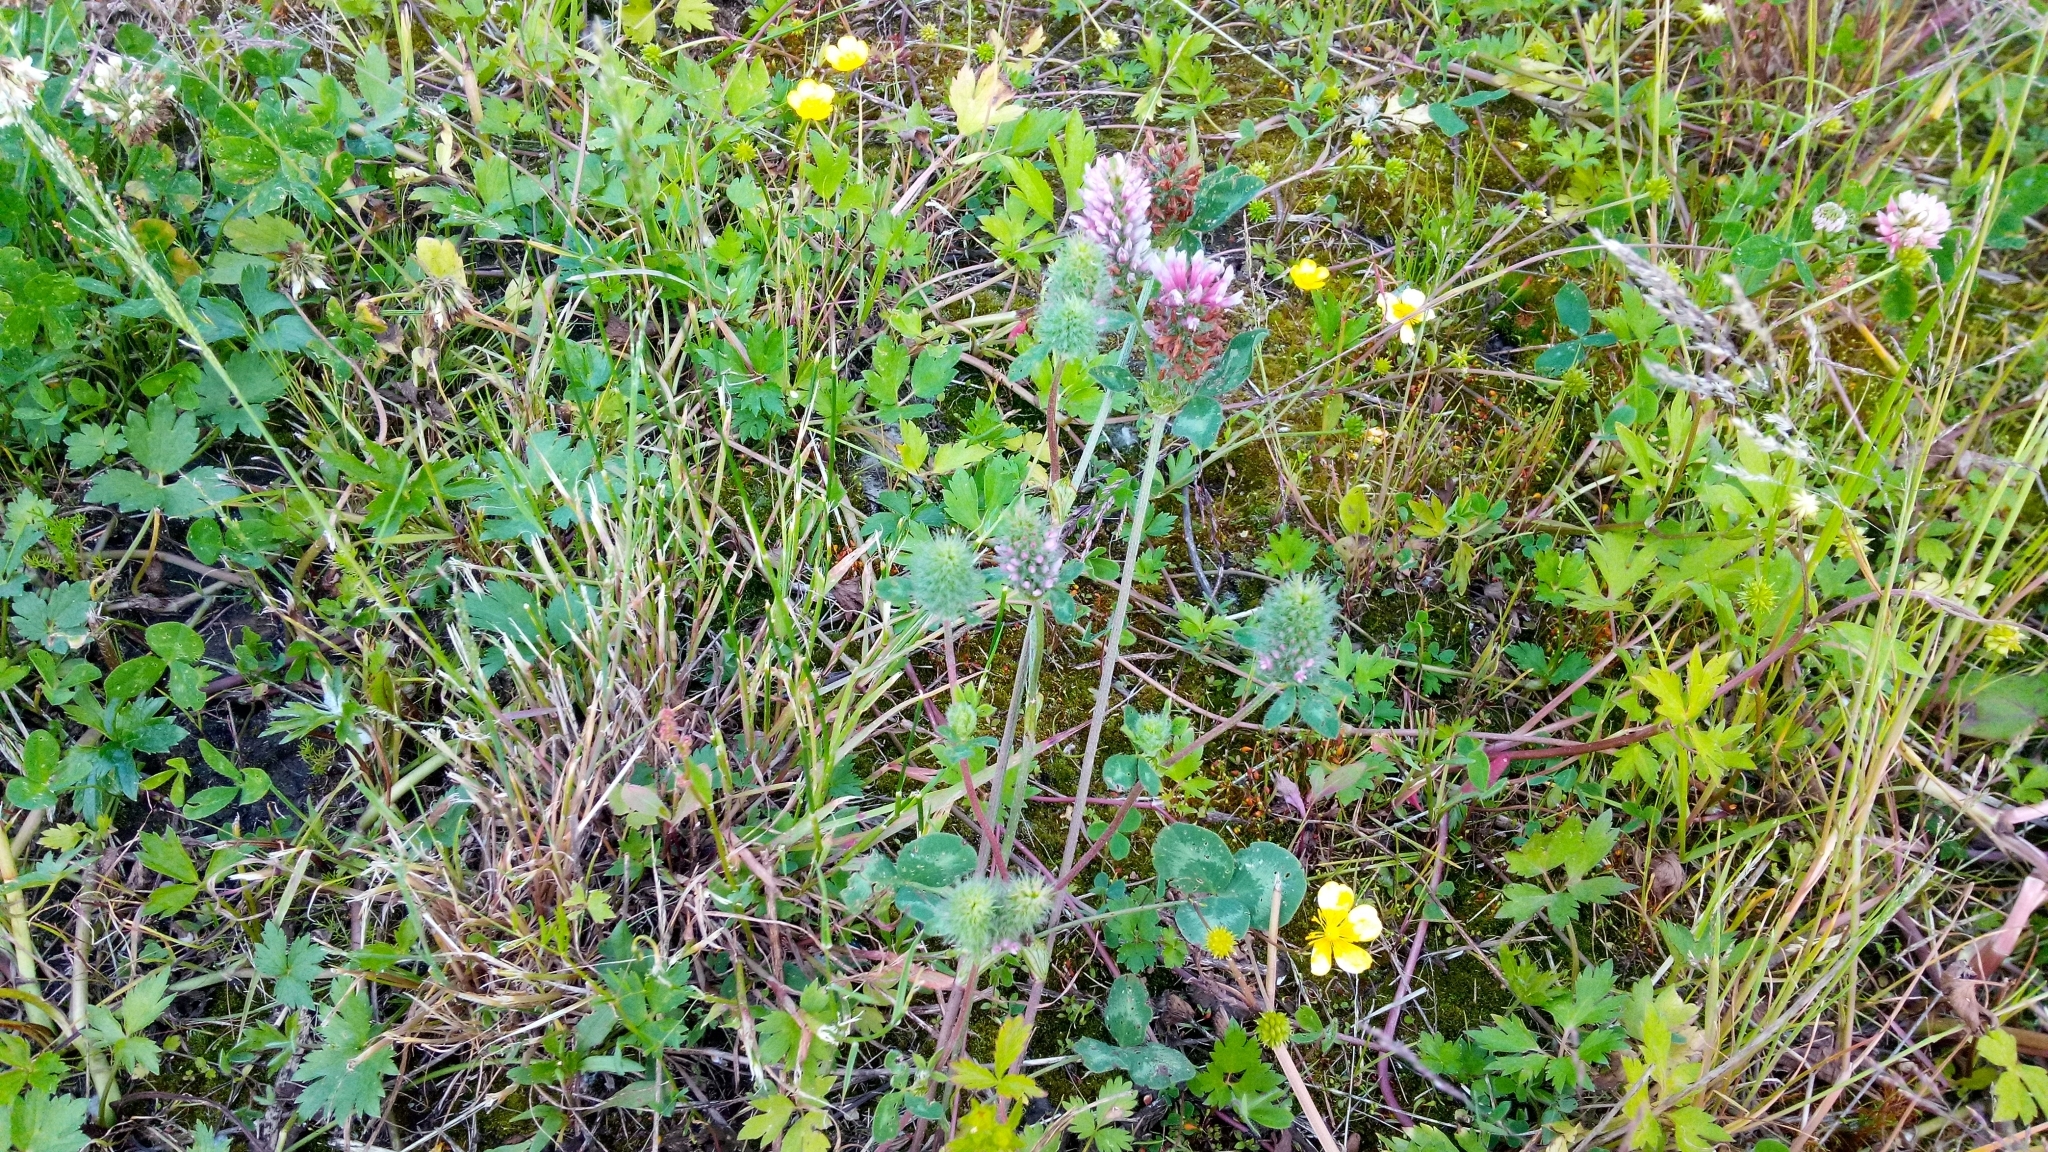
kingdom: Plantae
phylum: Tracheophyta
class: Magnoliopsida
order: Fabales
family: Fabaceae
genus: Trifolium
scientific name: Trifolium pratense
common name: Red clover
